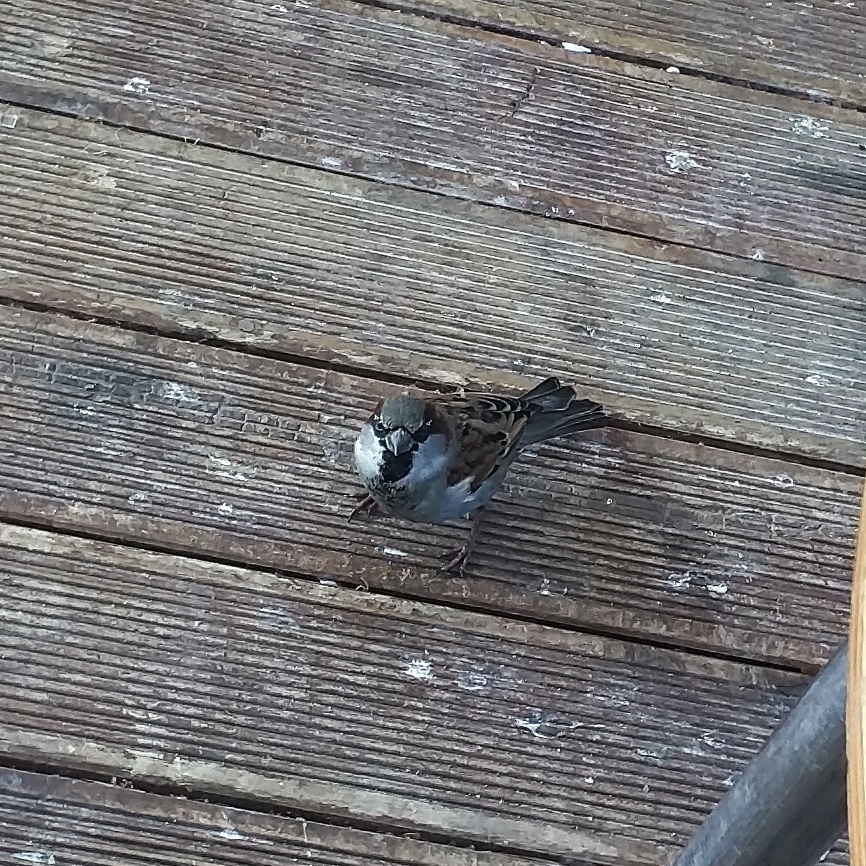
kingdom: Animalia
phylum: Chordata
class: Aves
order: Passeriformes
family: Passeridae
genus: Passer
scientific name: Passer domesticus
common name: House sparrow
